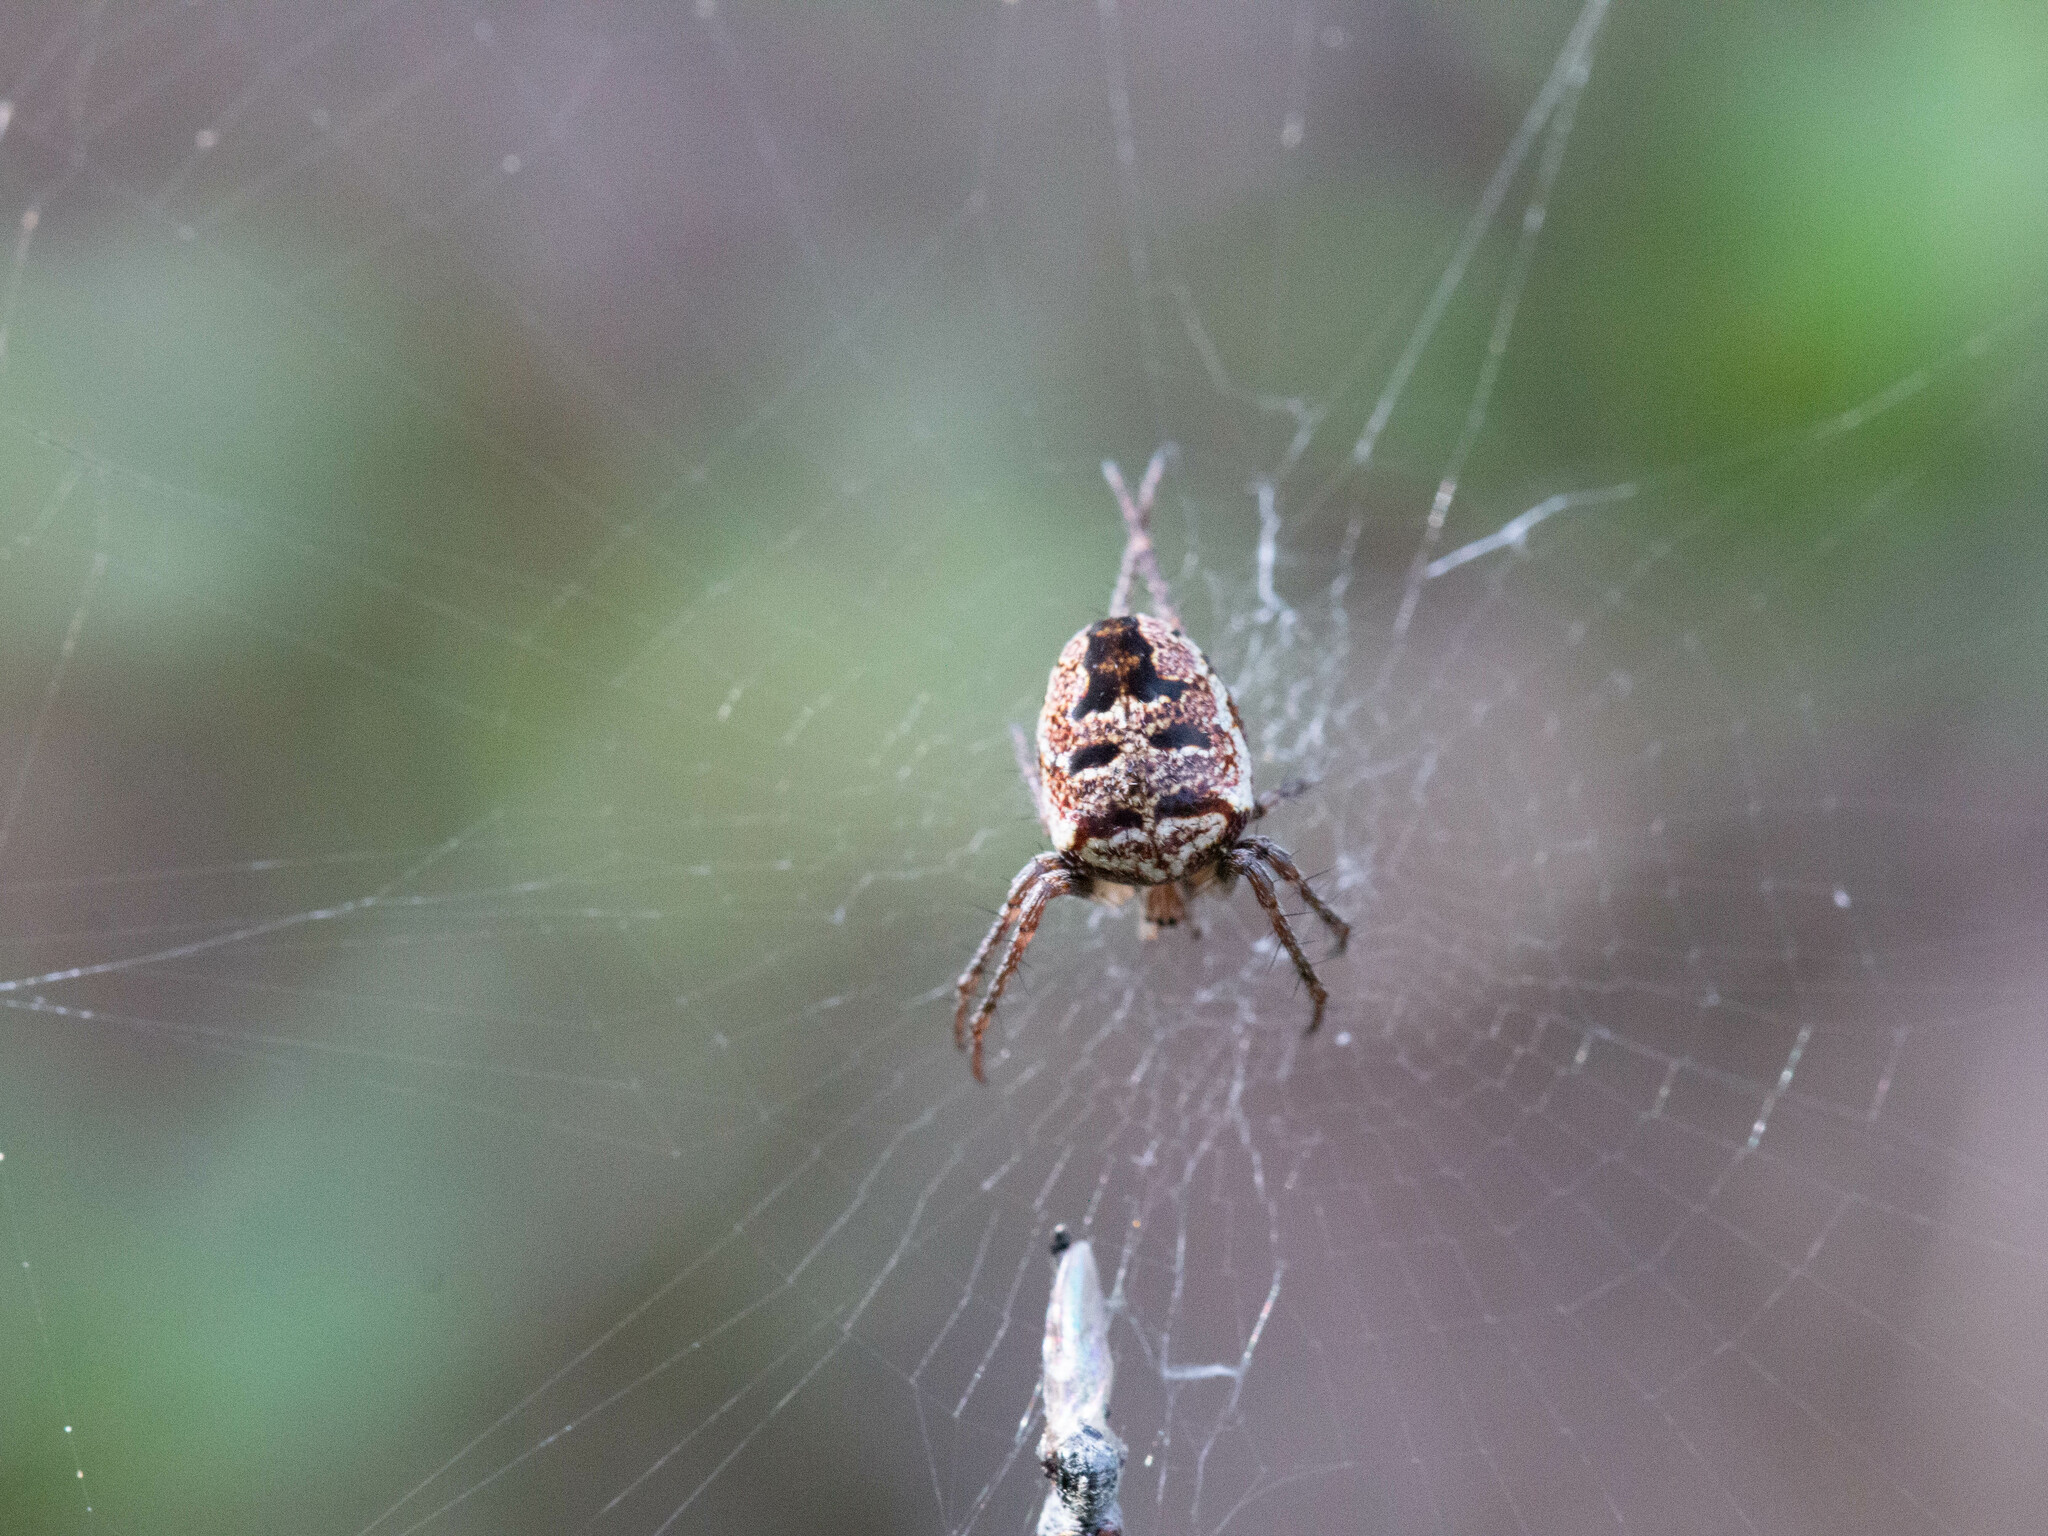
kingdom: Animalia
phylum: Arthropoda
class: Arachnida
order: Araneae
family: Araneidae
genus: Zilla
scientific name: Zilla diodia
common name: Zilla diodia
